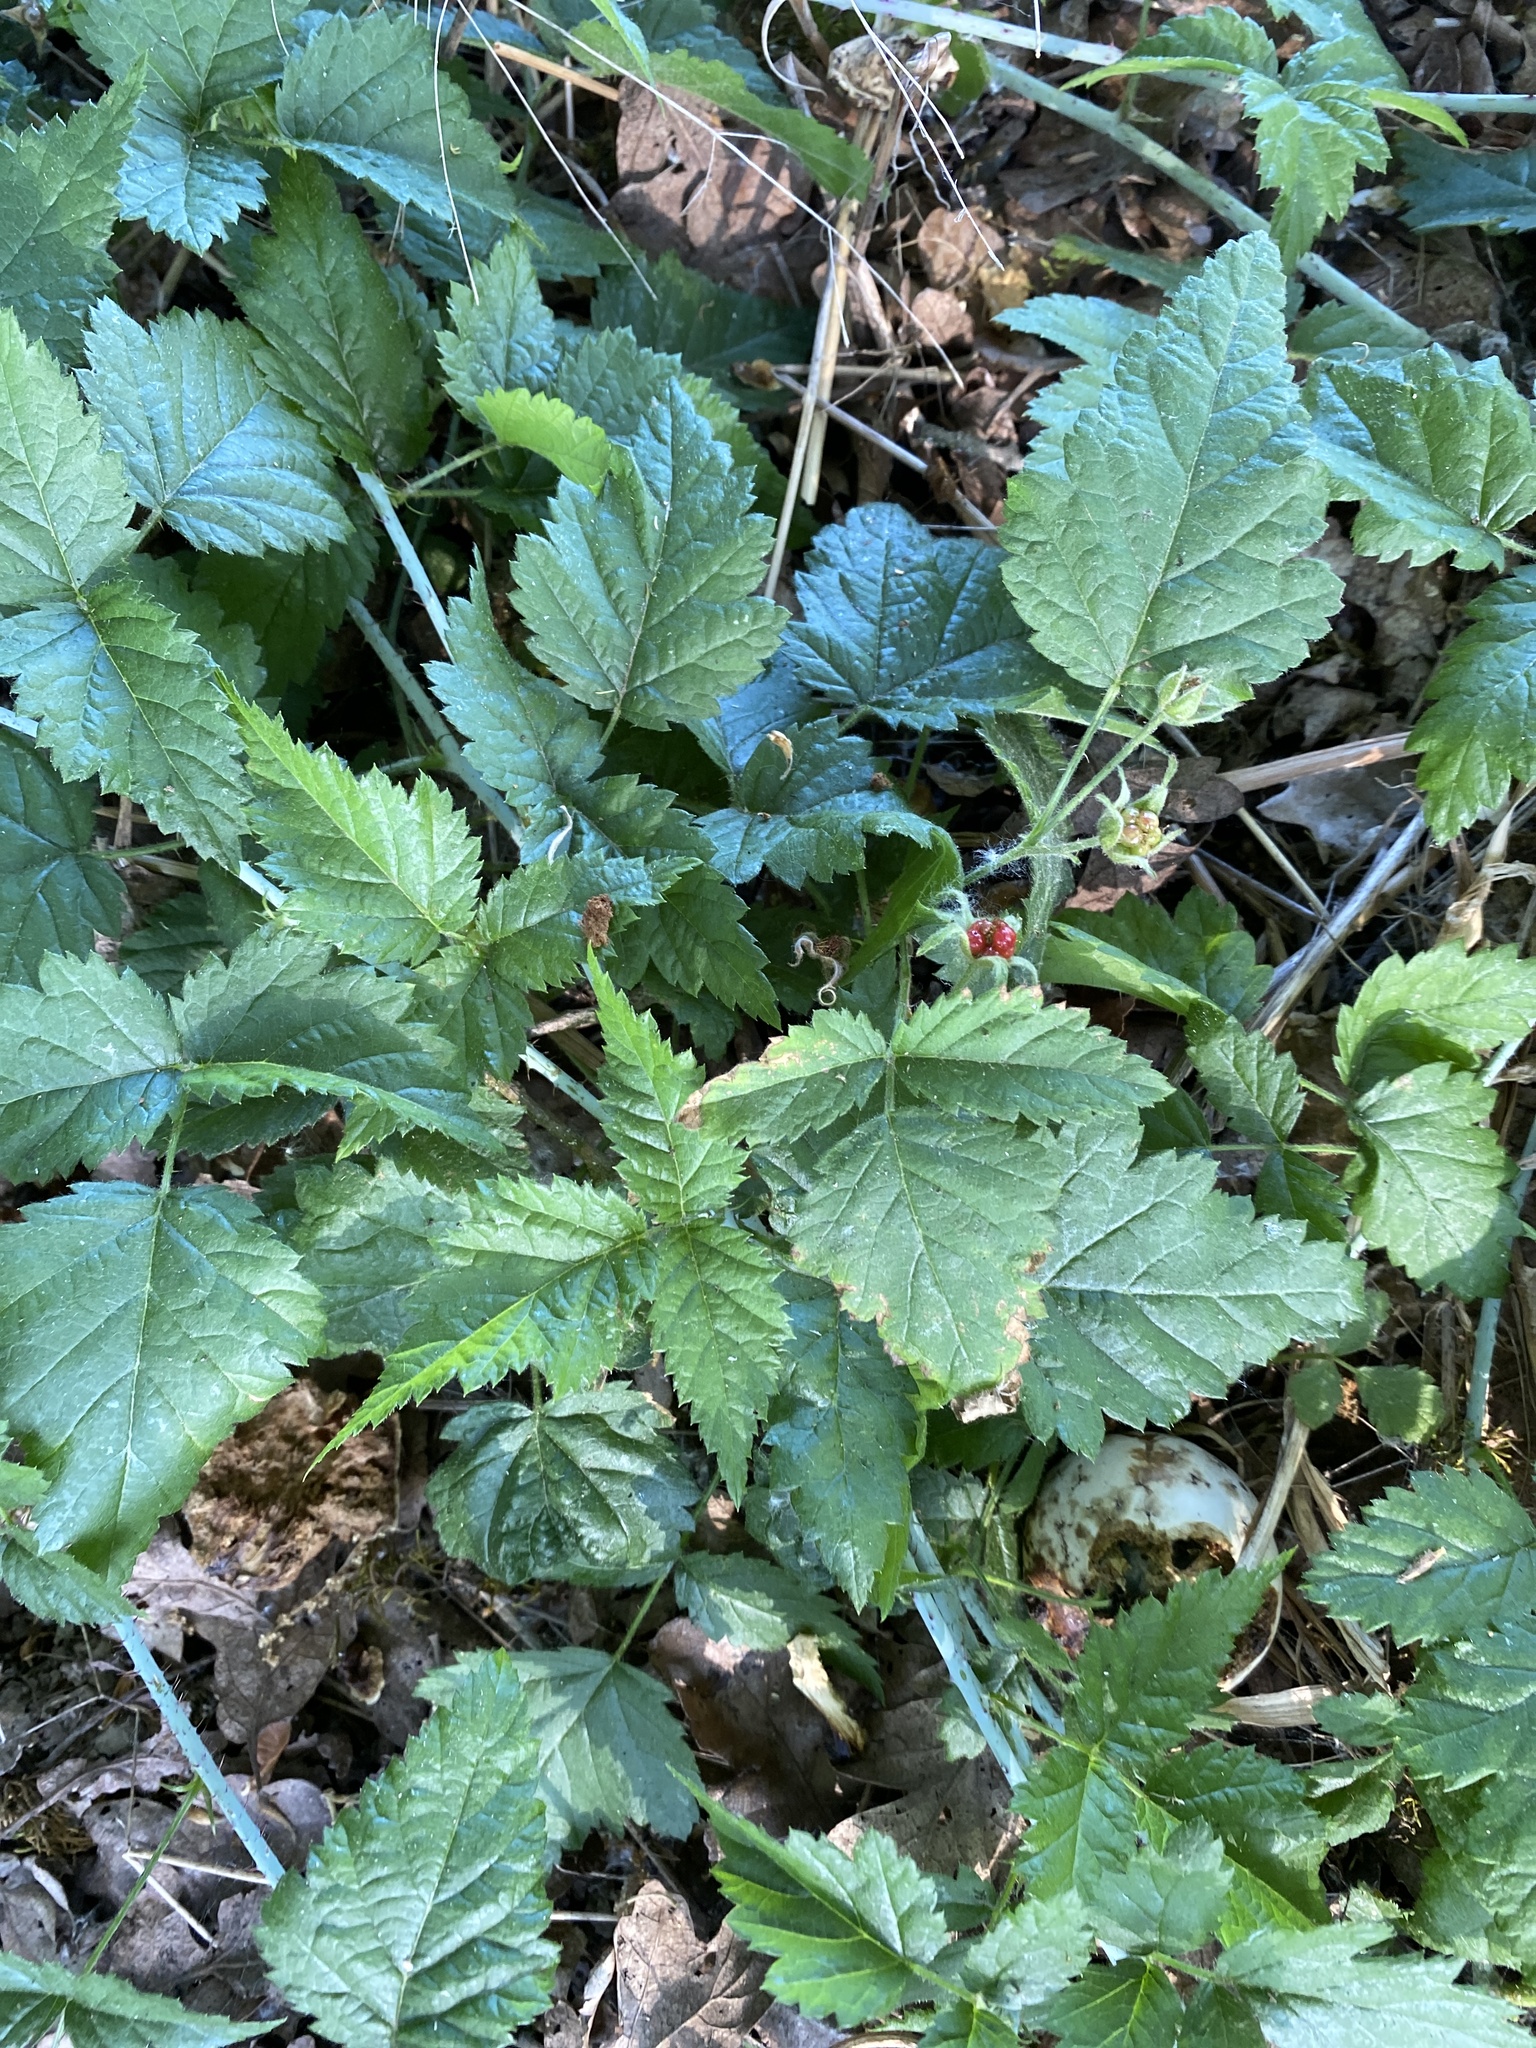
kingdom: Plantae
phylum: Tracheophyta
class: Magnoliopsida
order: Rosales
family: Rosaceae
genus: Rubus
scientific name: Rubus ursinus
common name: Pacific blackberry
